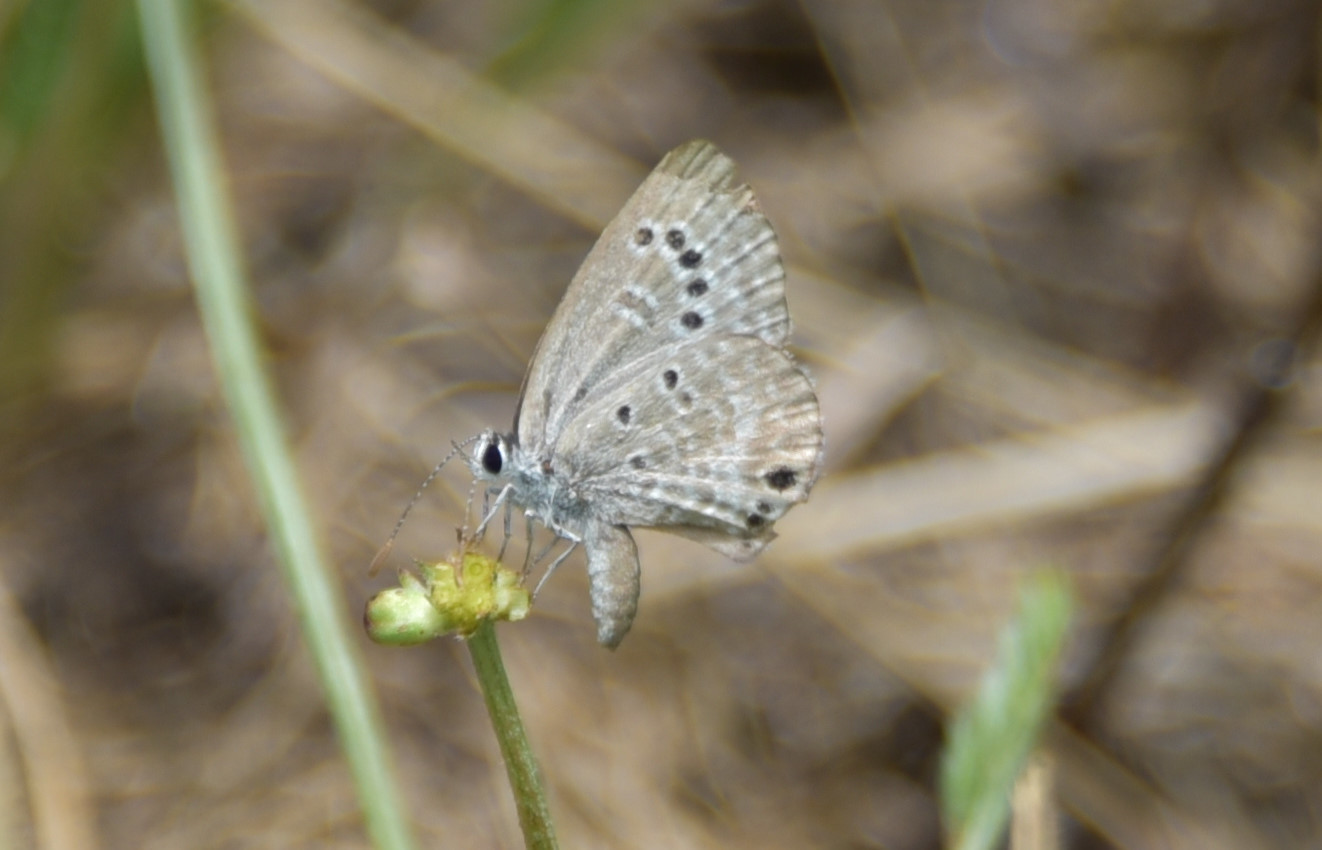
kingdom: Animalia
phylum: Arthropoda
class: Insecta
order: Lepidoptera
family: Lycaenidae
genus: Echinargus
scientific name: Echinargus isola
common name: Reakirt's blue
